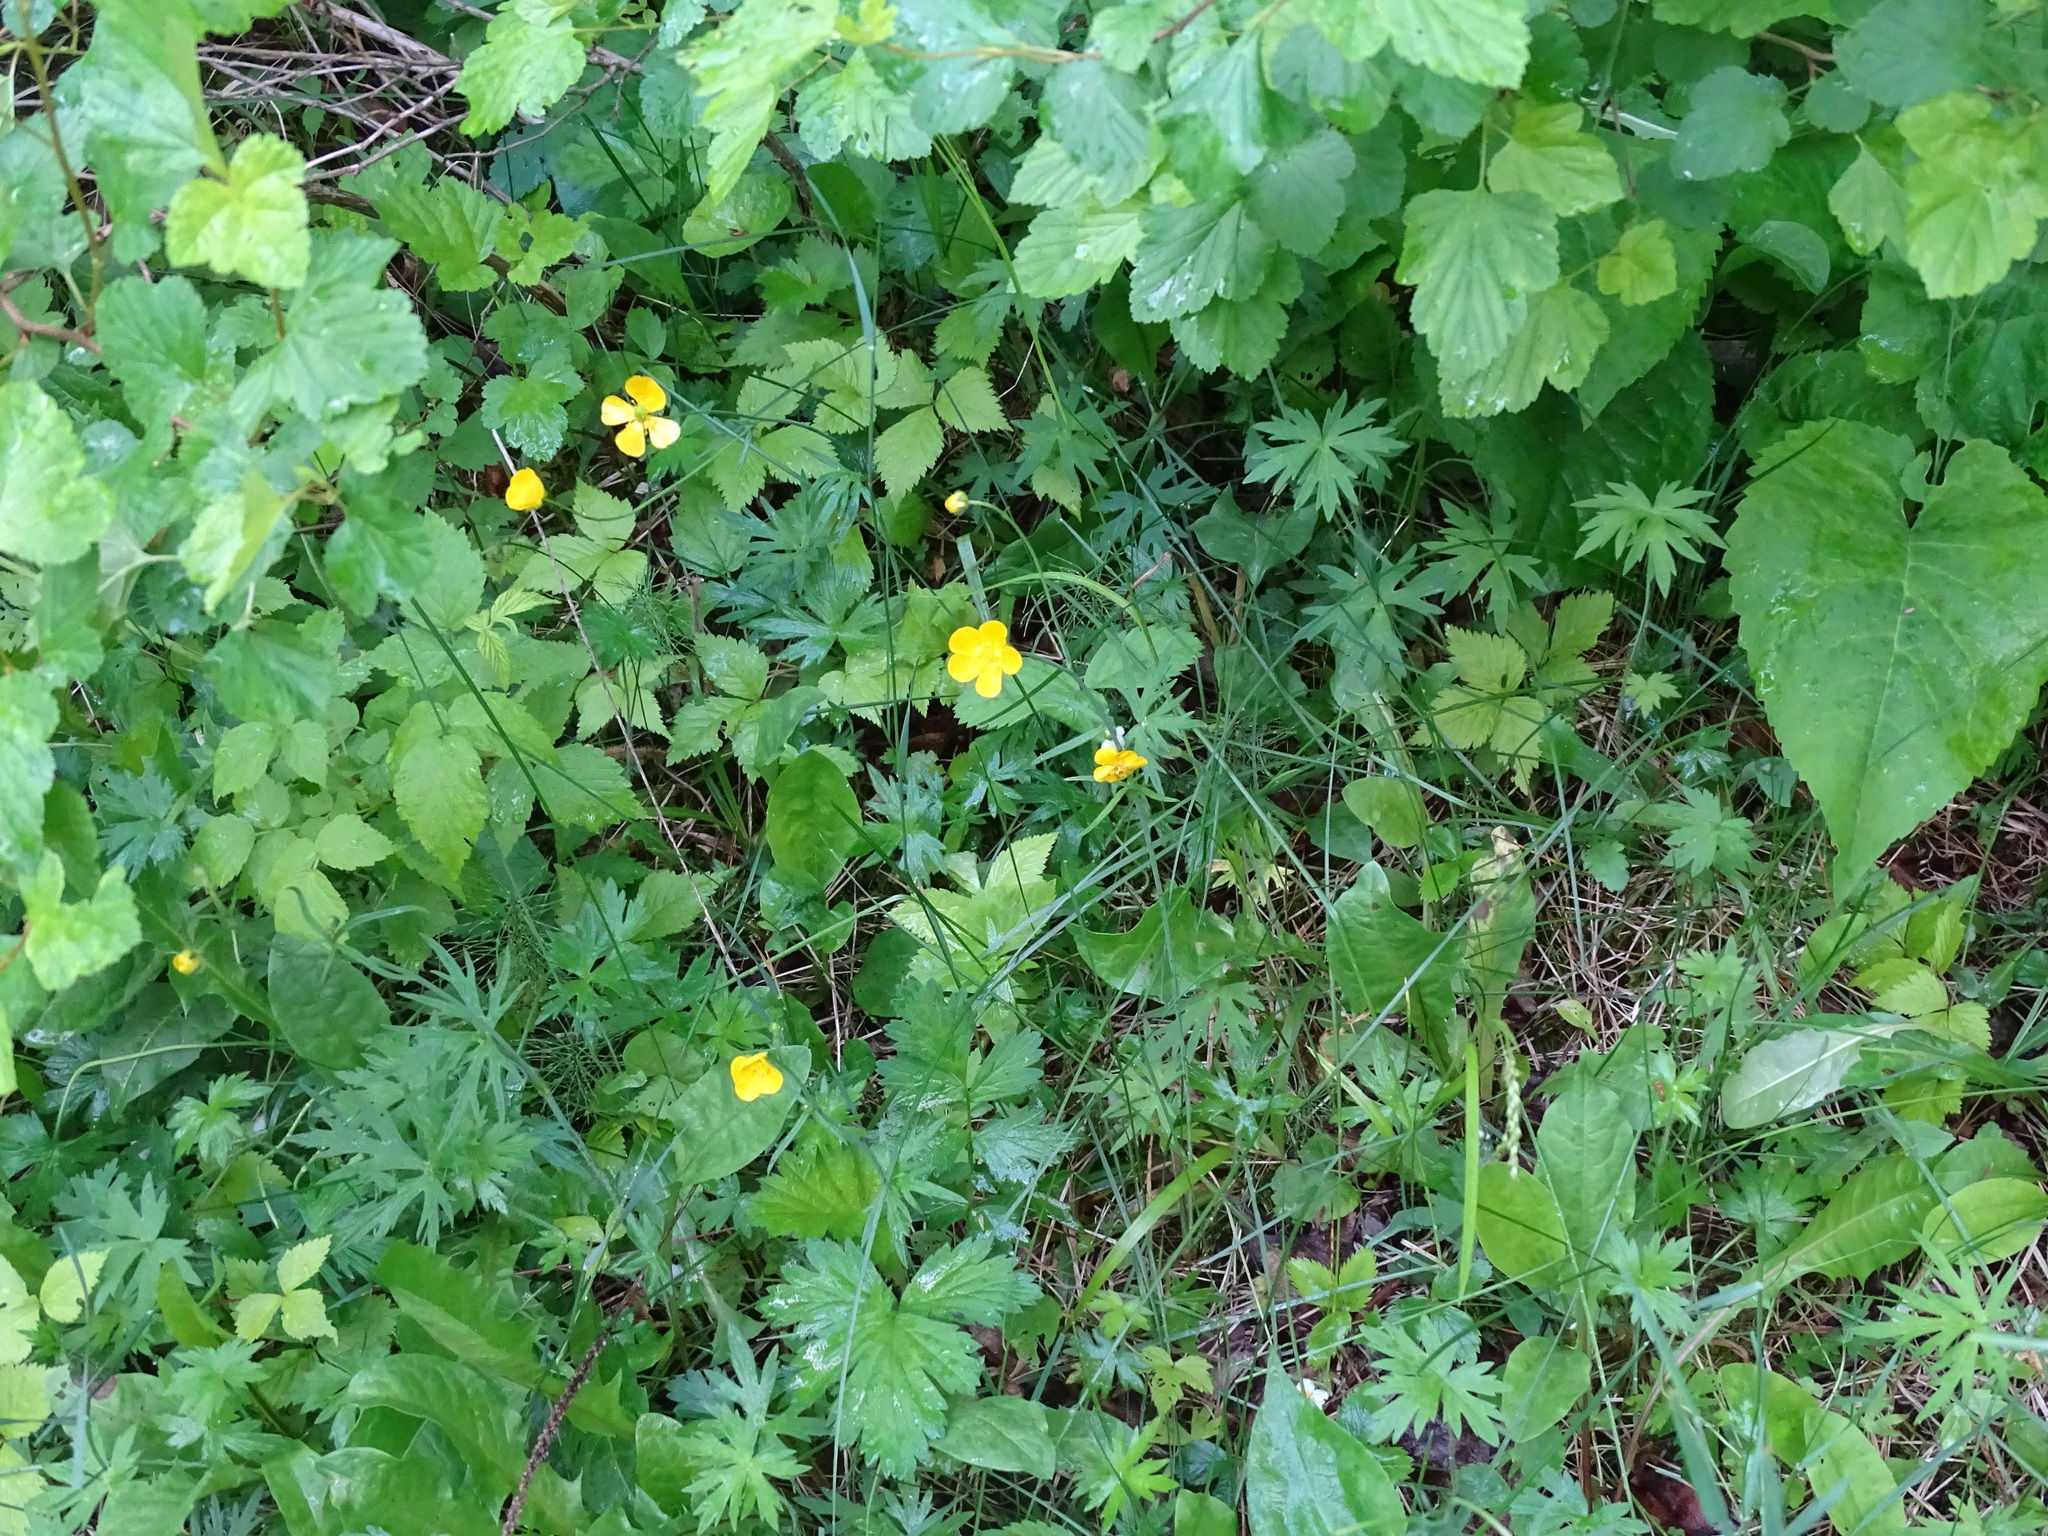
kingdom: Plantae
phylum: Tracheophyta
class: Magnoliopsida
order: Ranunculales
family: Ranunculaceae
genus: Ranunculus
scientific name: Ranunculus acris
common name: Meadow buttercup
